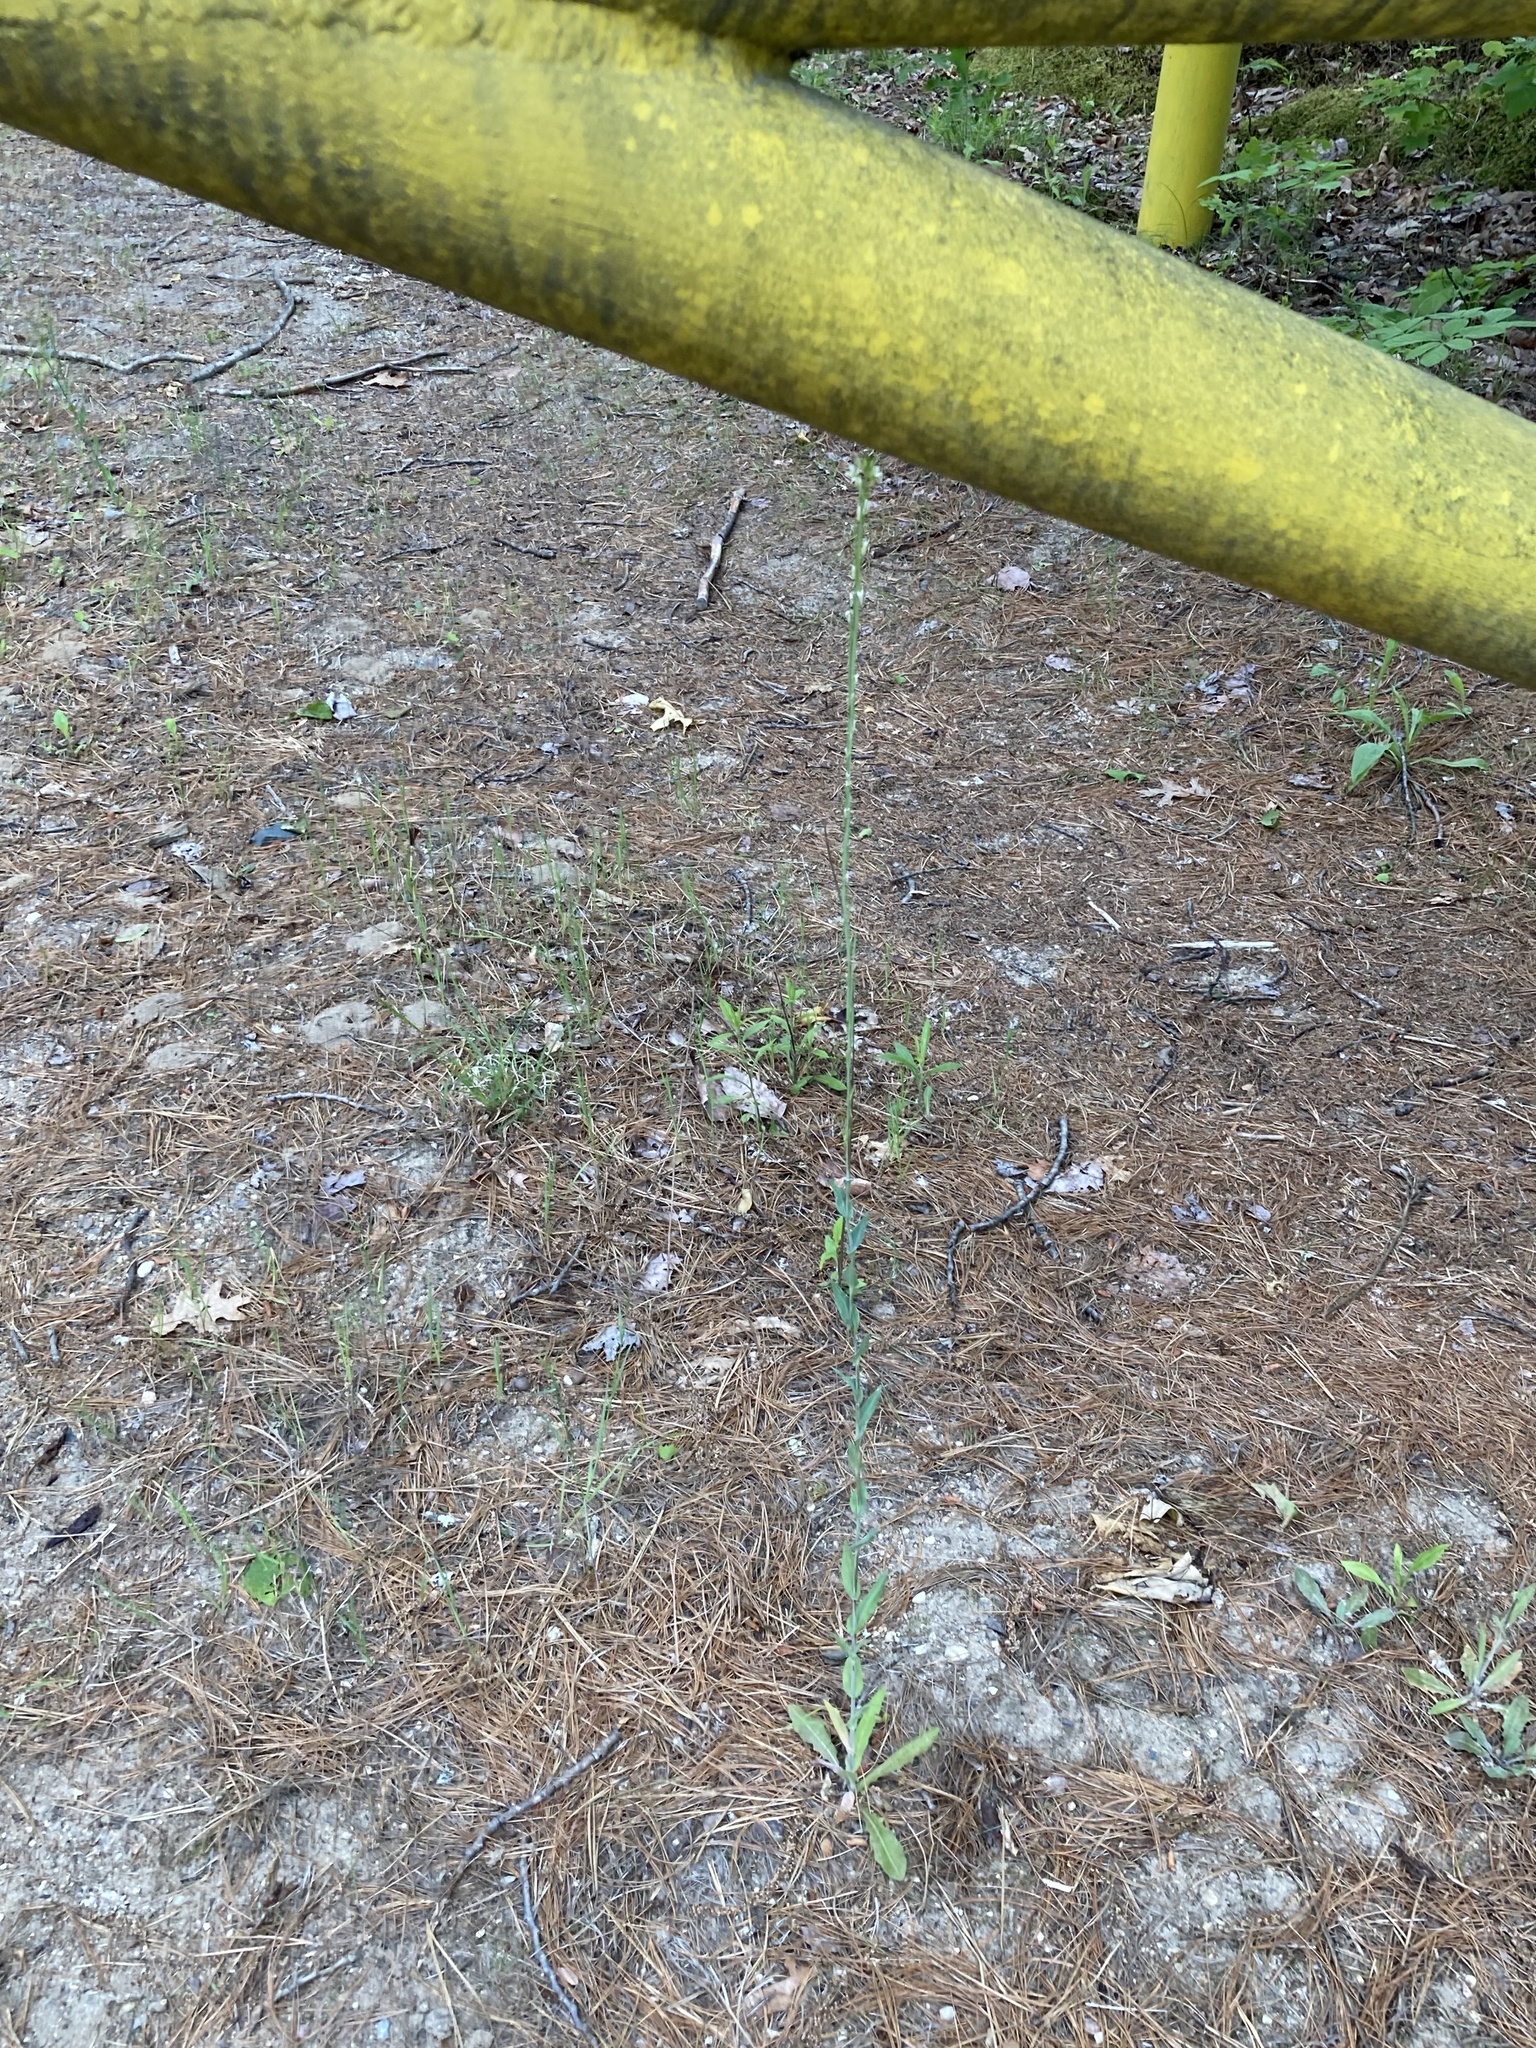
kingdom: Plantae
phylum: Tracheophyta
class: Magnoliopsida
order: Brassicales
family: Brassicaceae
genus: Turritis
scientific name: Turritis glabra
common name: Tower rockcress
